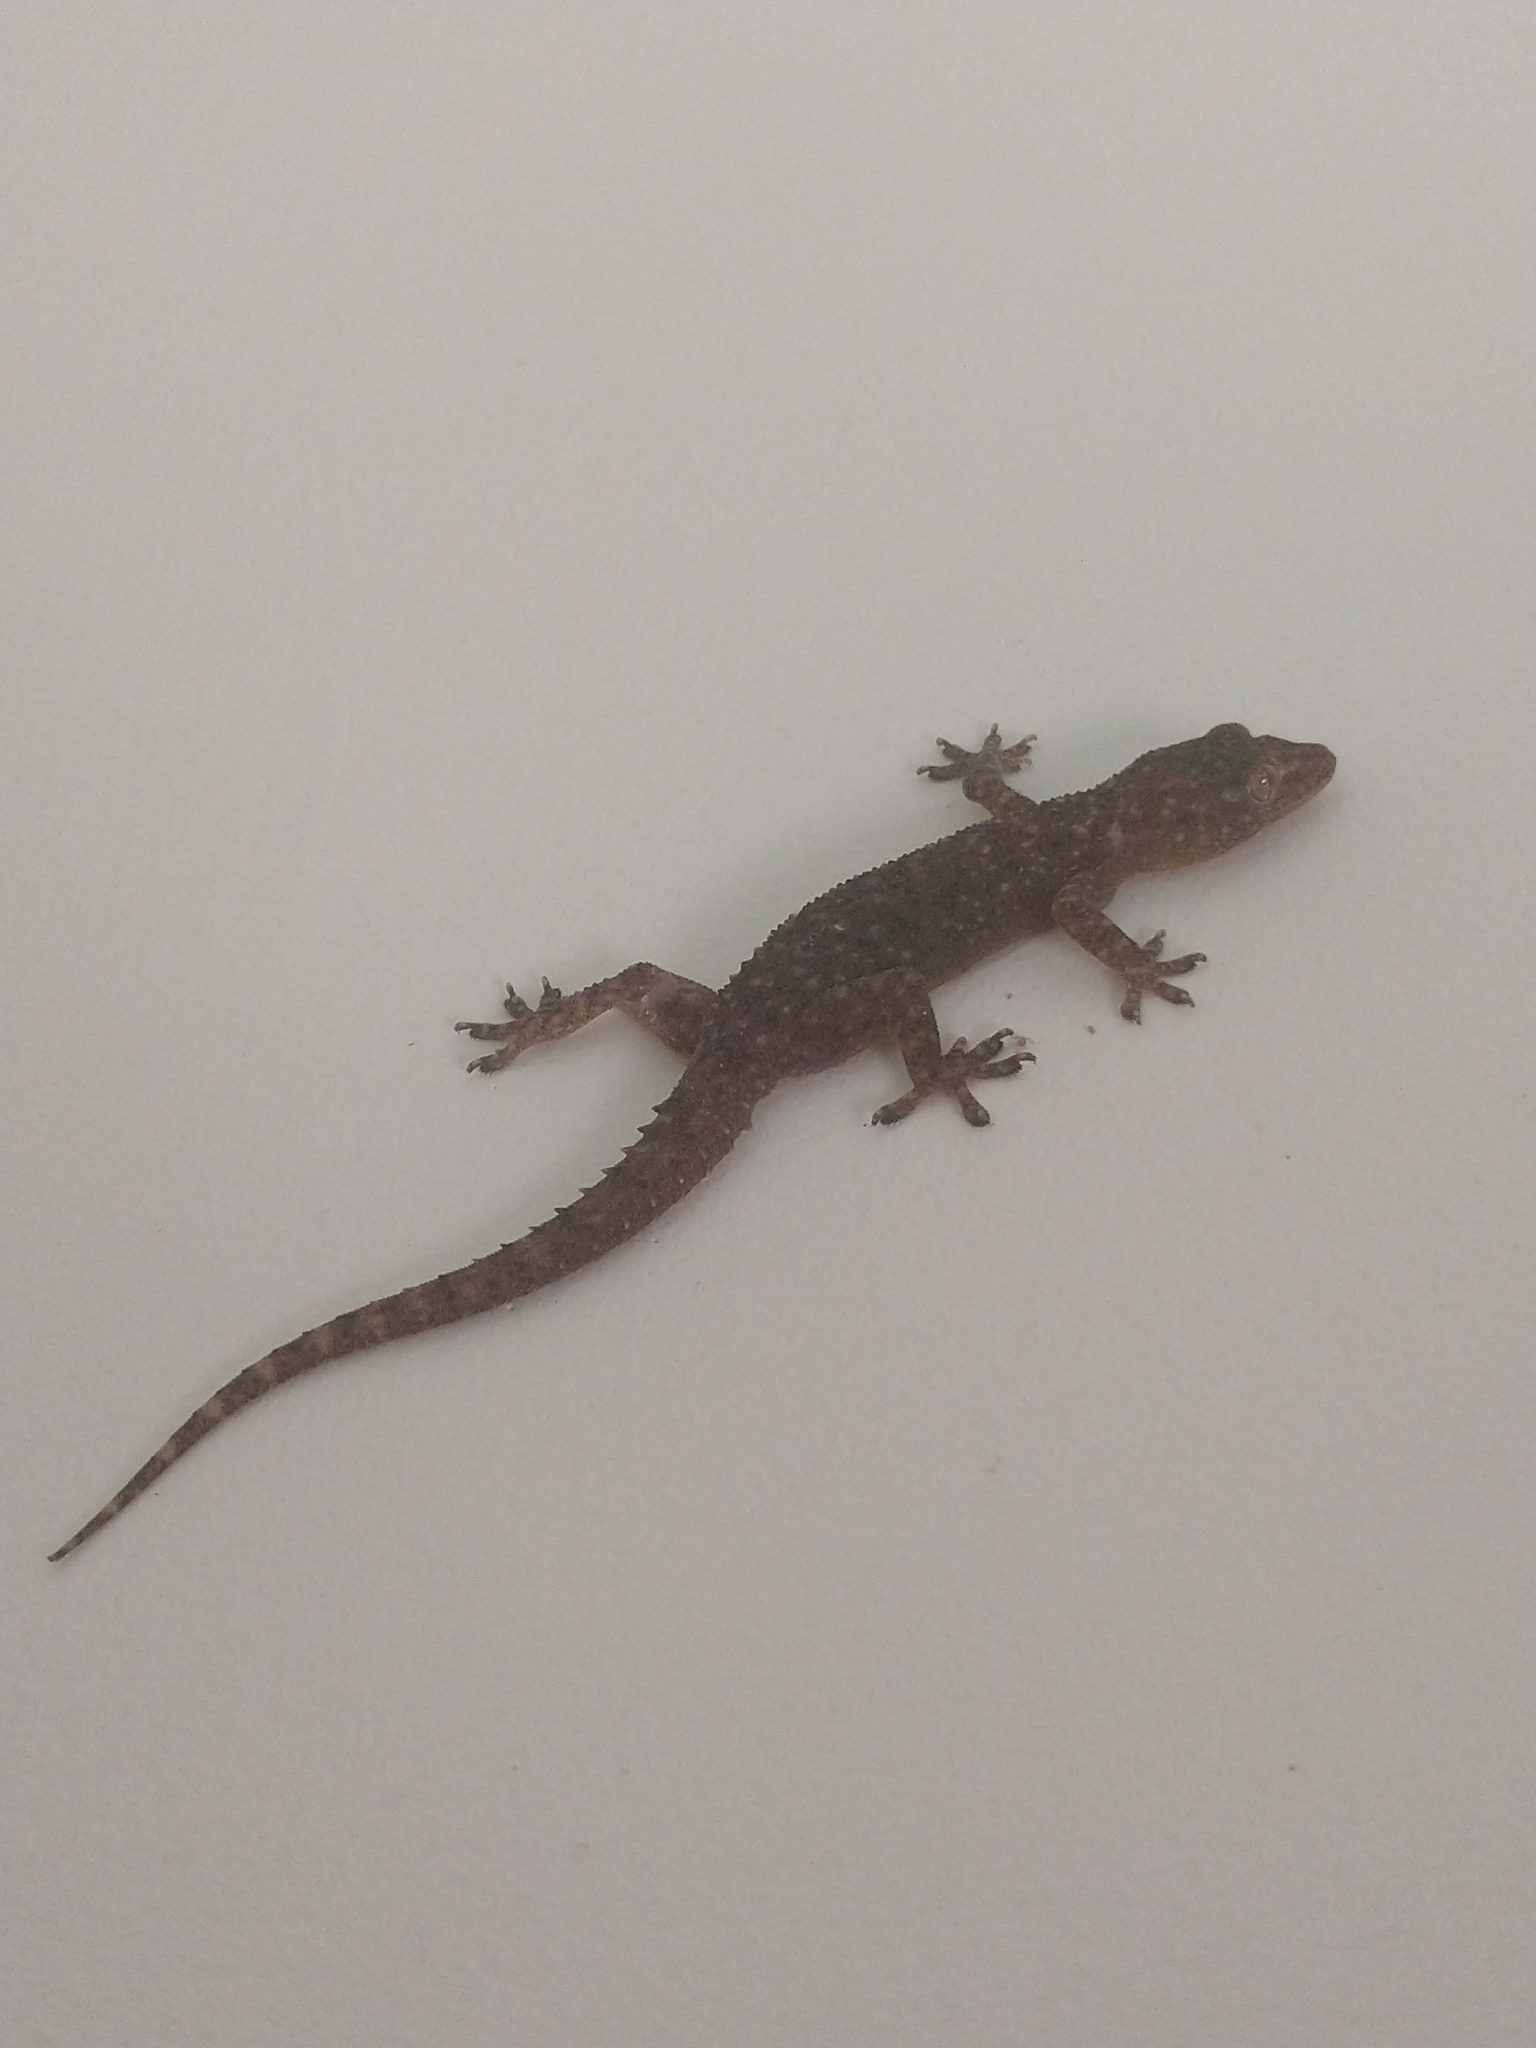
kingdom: Animalia
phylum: Chordata
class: Squamata
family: Gekkonidae
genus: Hemidactylus
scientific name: Hemidactylus parvimaculatus
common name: Spotted house gecko
